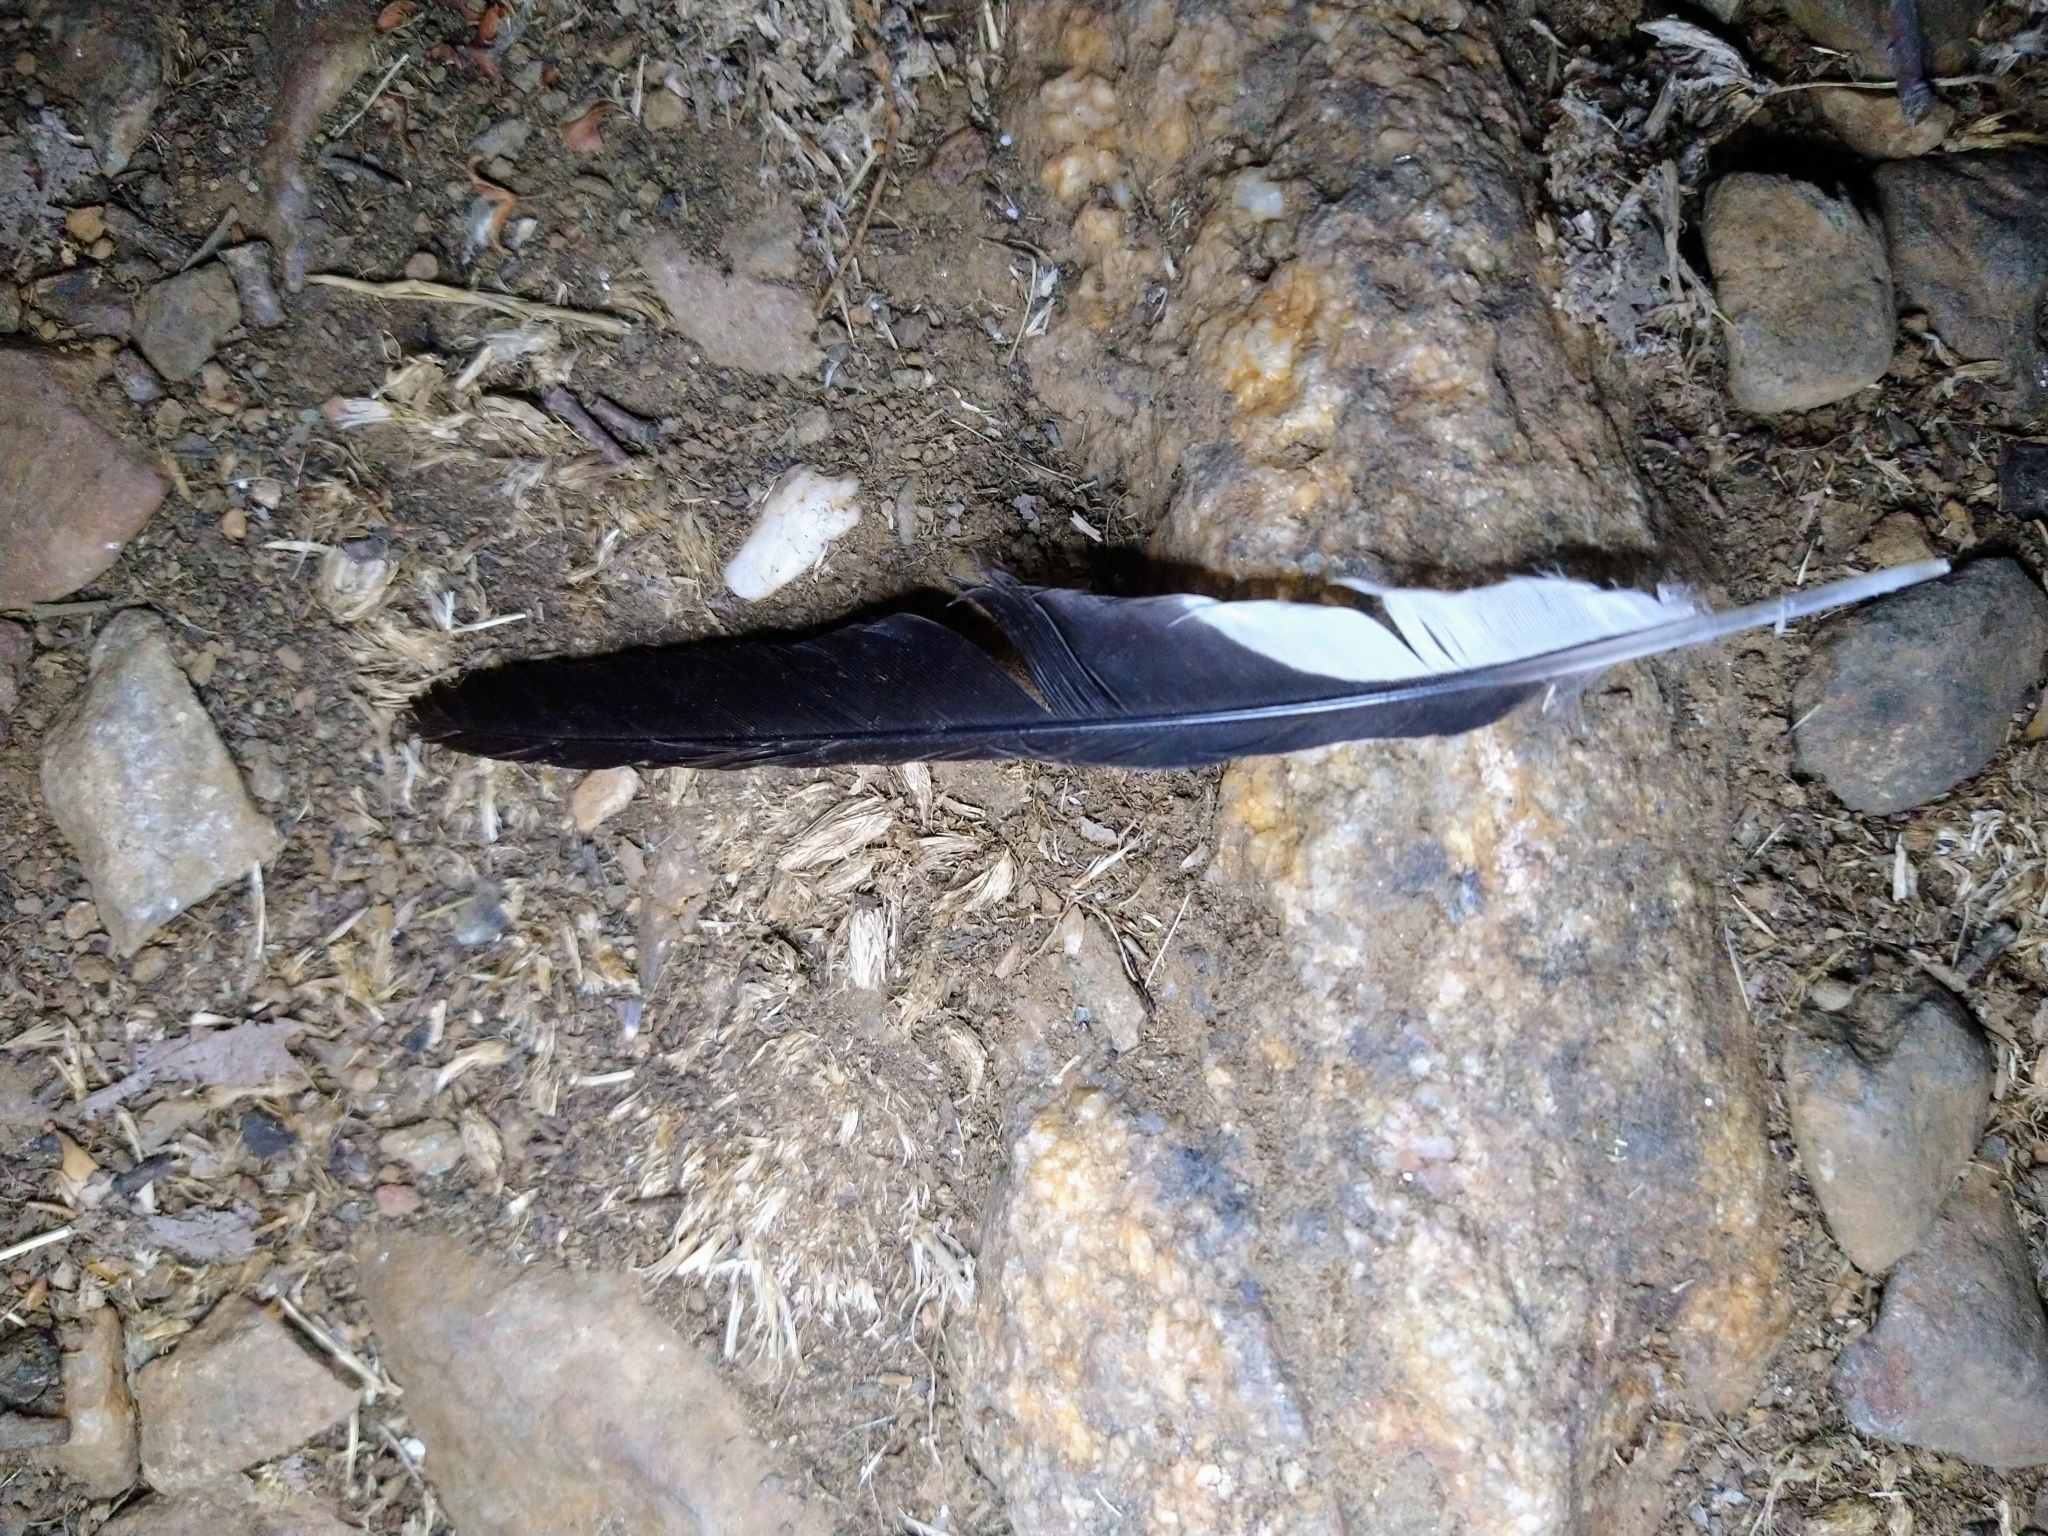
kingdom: Animalia
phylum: Chordata
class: Aves
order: Piciformes
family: Picidae
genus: Melanerpes
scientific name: Melanerpes formicivorus
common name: Acorn woodpecker
